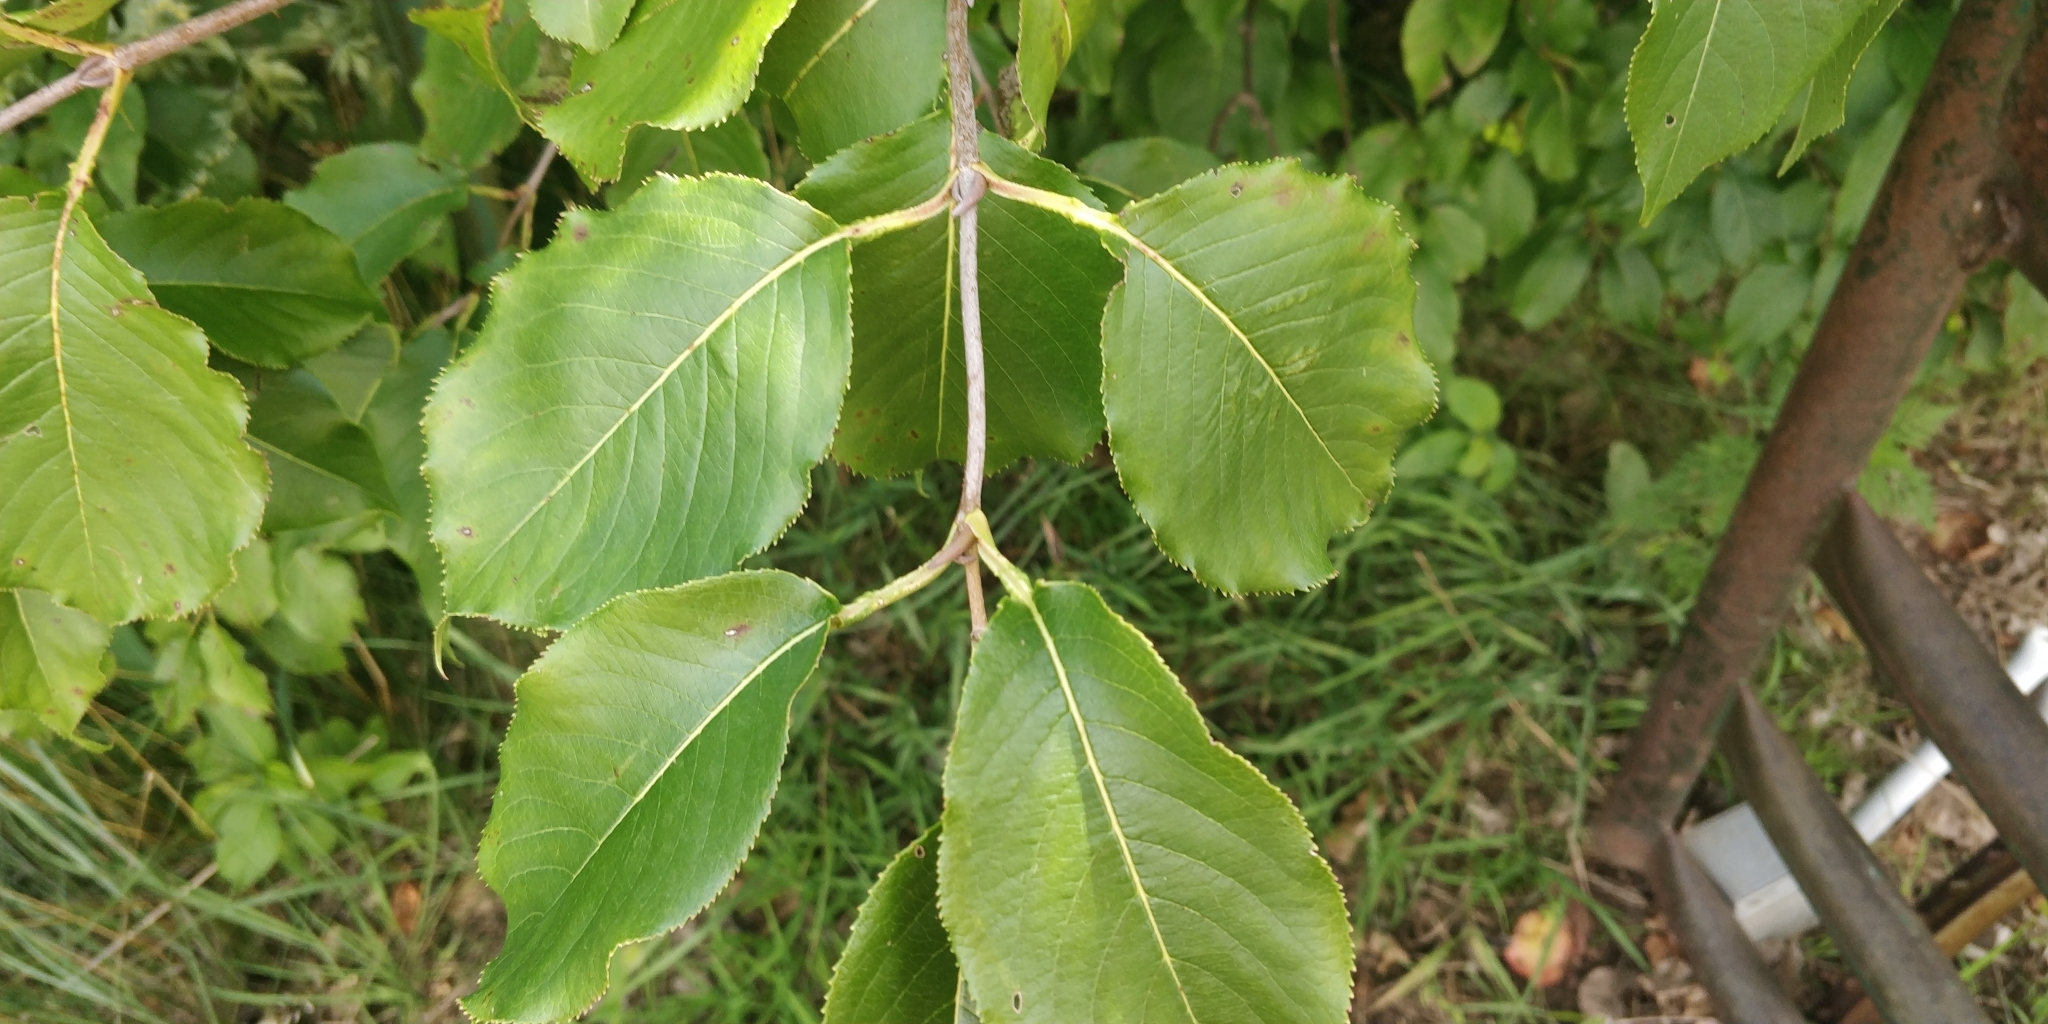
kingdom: Plantae
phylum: Tracheophyta
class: Magnoliopsida
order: Dipsacales
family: Viburnaceae
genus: Viburnum
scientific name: Viburnum lentago
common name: Black haw
